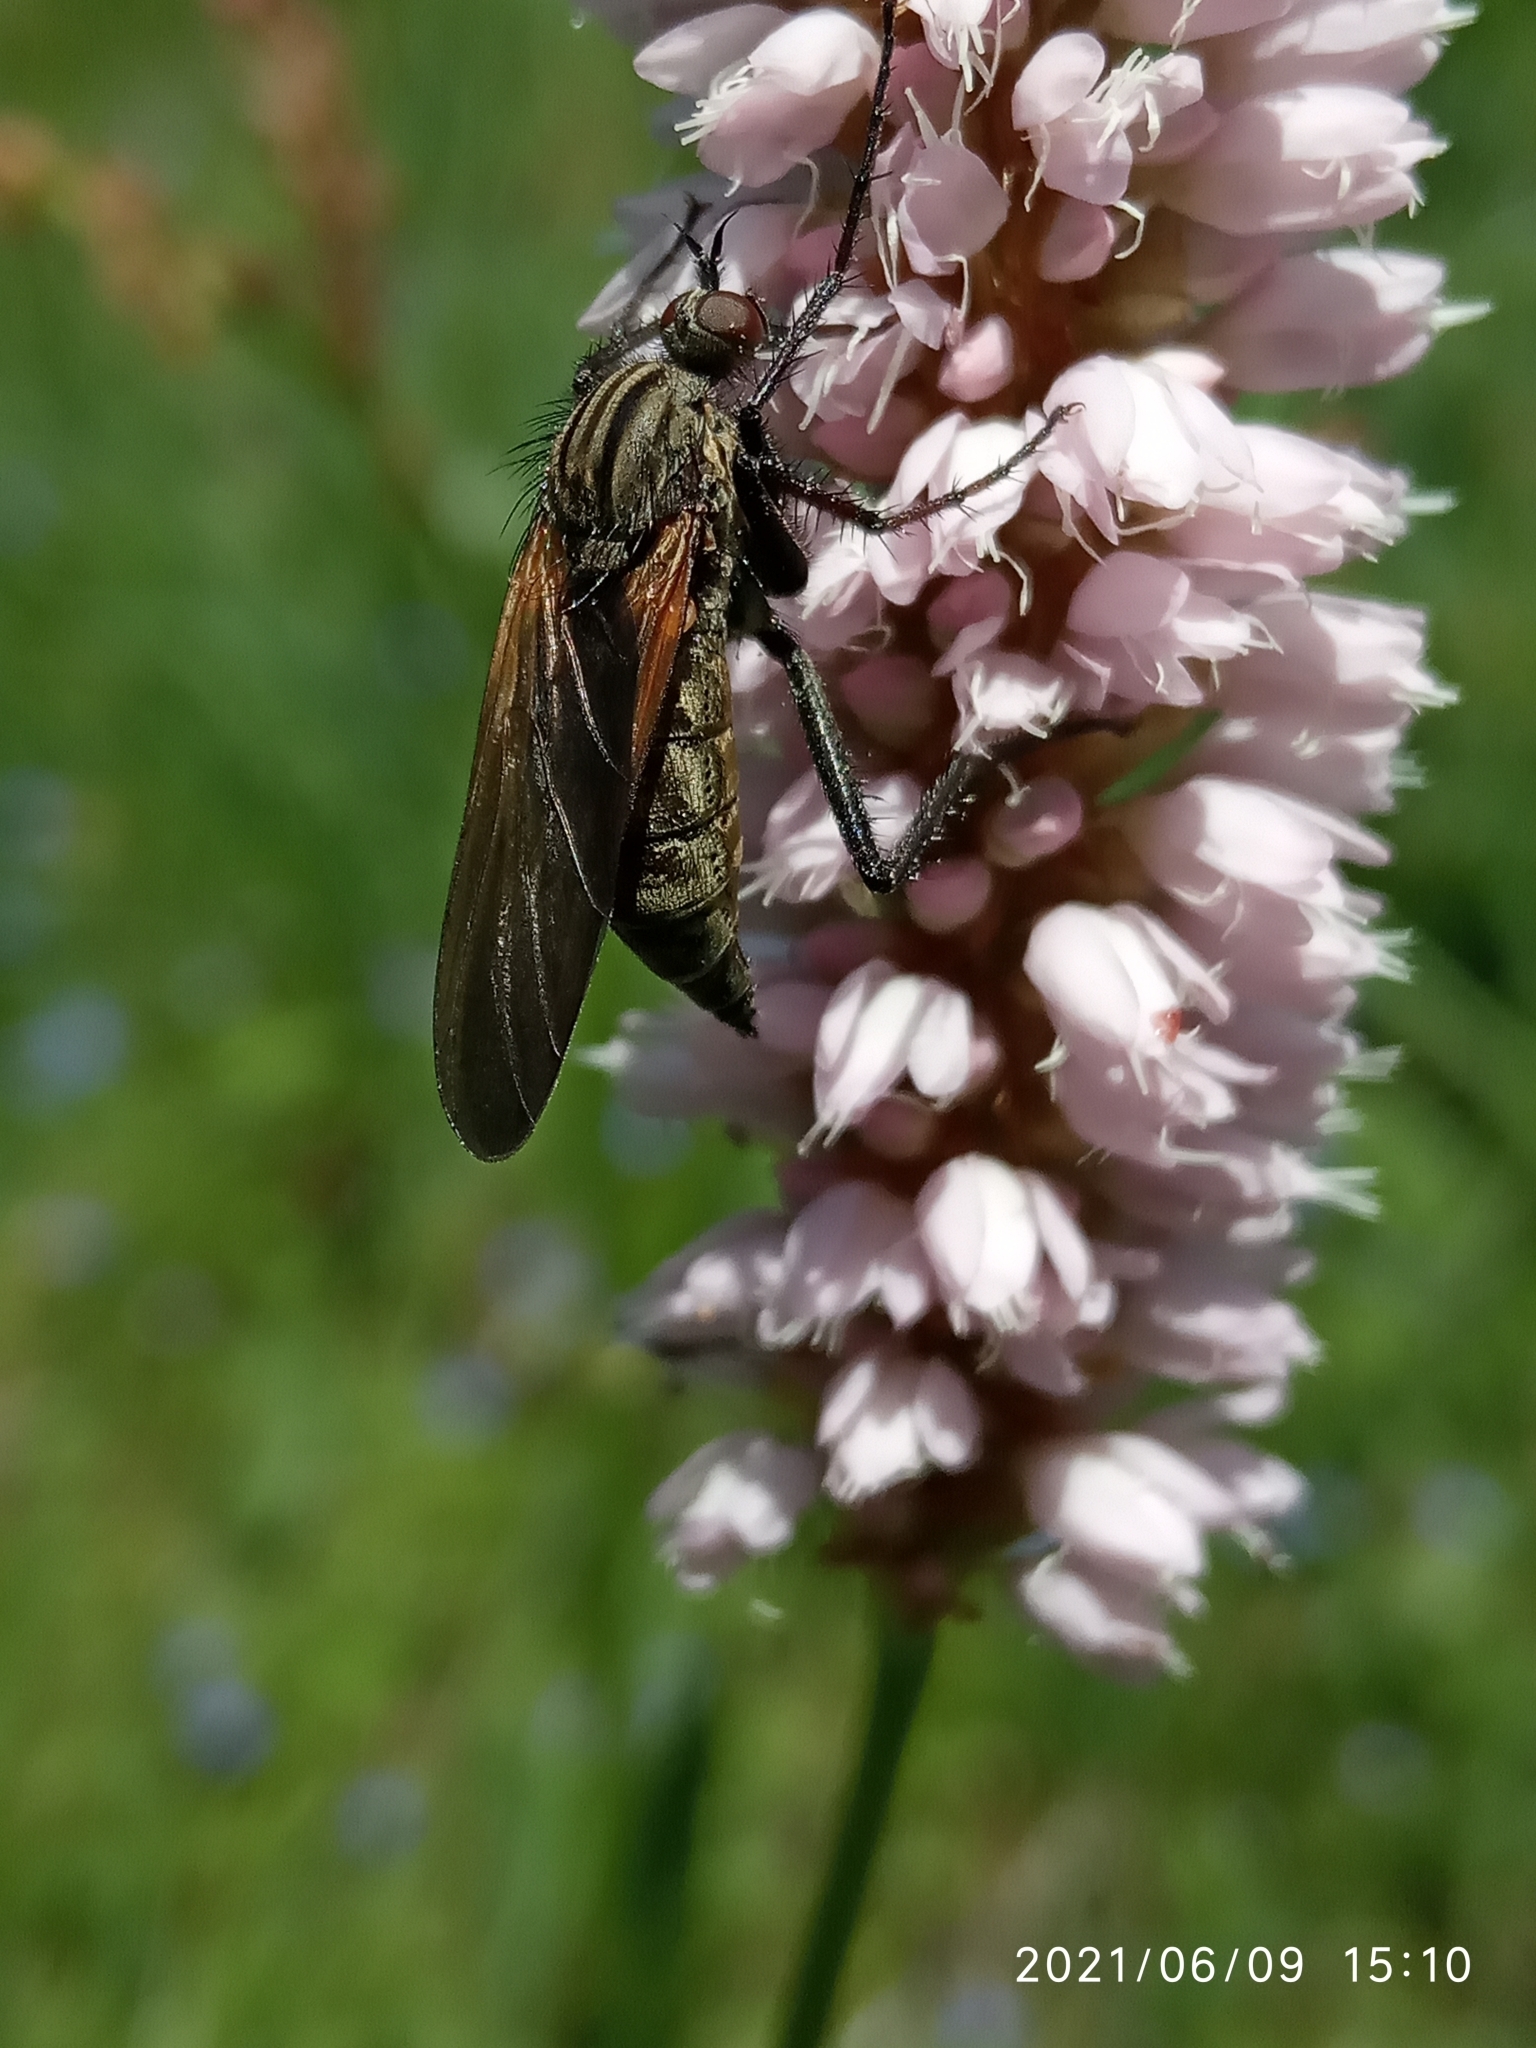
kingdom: Animalia
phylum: Arthropoda
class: Insecta
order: Diptera
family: Empididae
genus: Empis
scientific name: Empis tessellata
